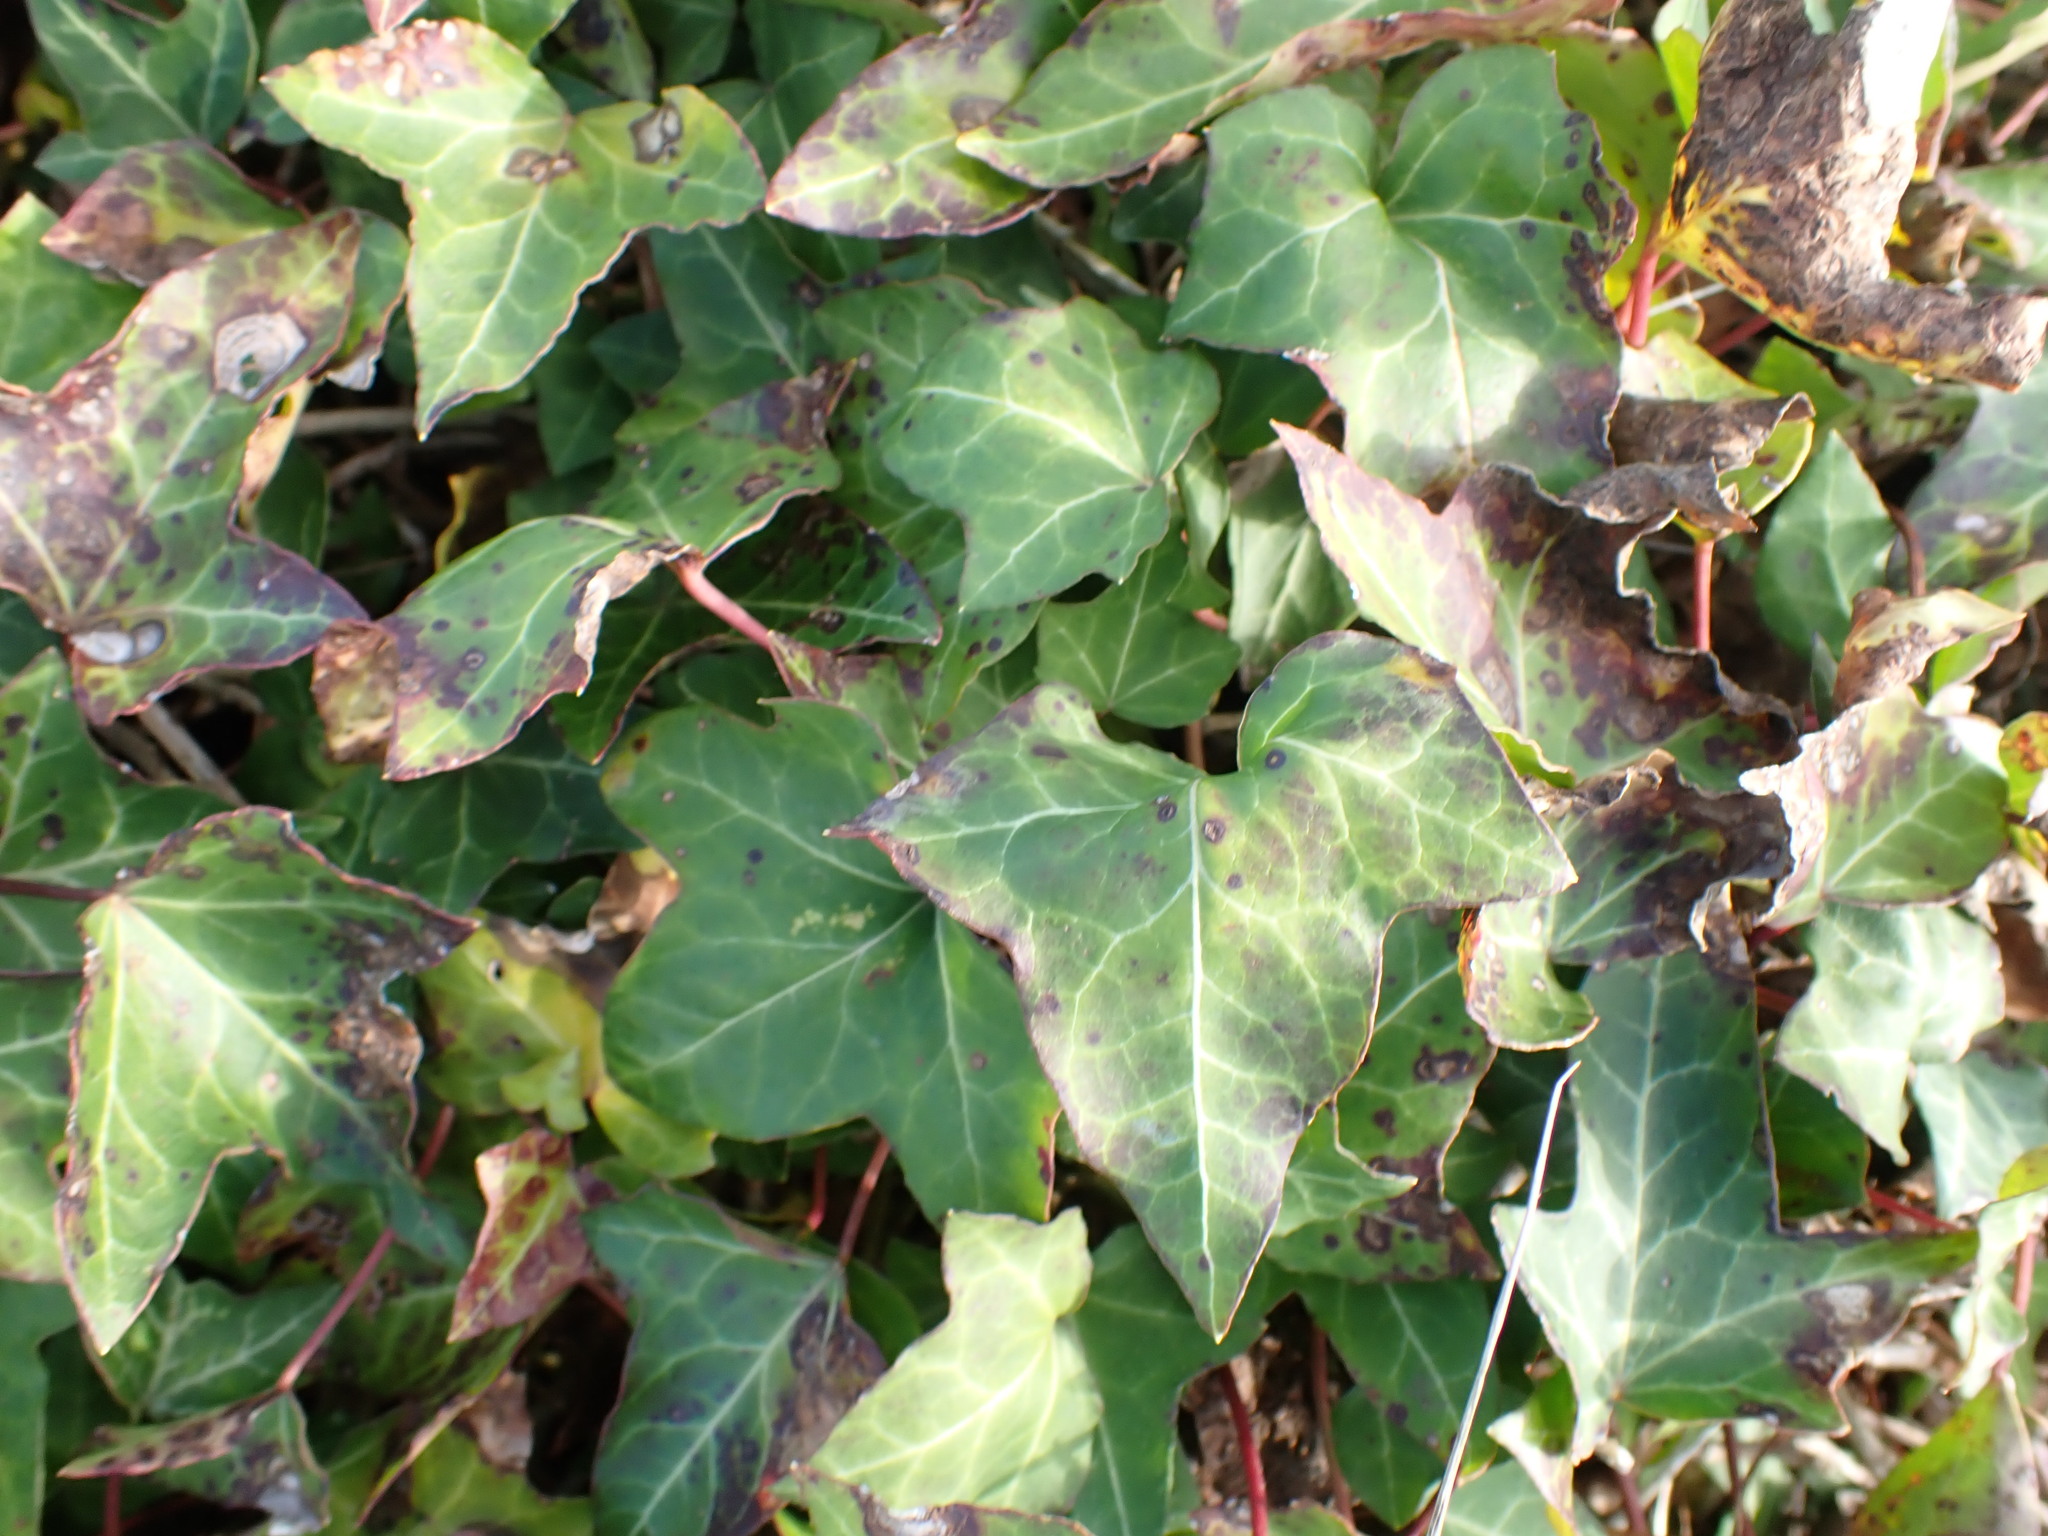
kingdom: Plantae
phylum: Tracheophyta
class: Magnoliopsida
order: Apiales
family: Araliaceae
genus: Hedera
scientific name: Hedera helix
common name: Ivy
